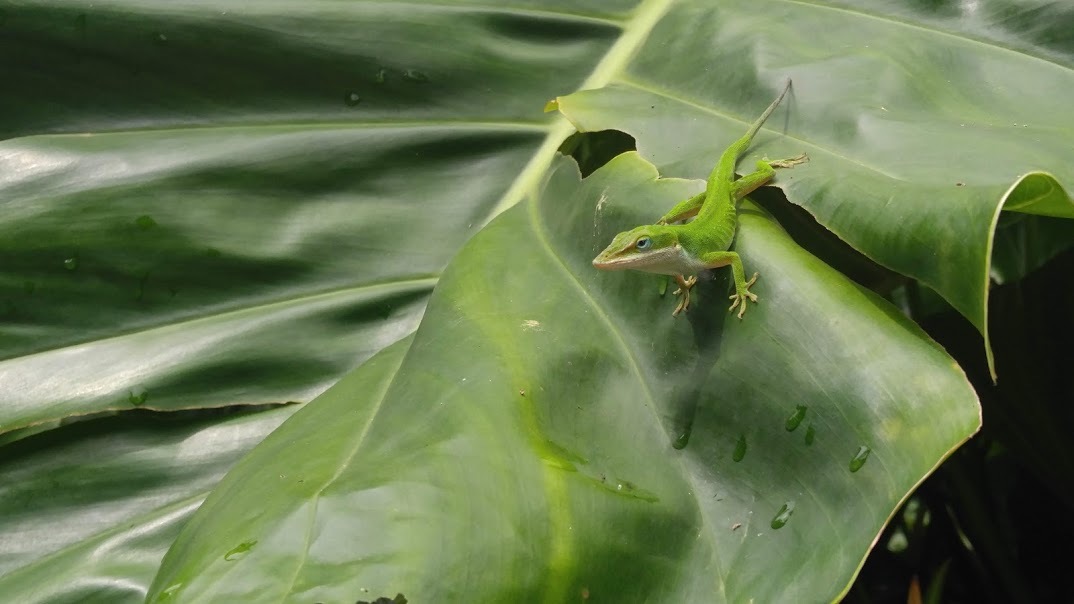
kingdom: Animalia
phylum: Chordata
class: Squamata
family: Dactyloidae
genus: Anolis
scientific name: Anolis carolinensis
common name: Green anole
